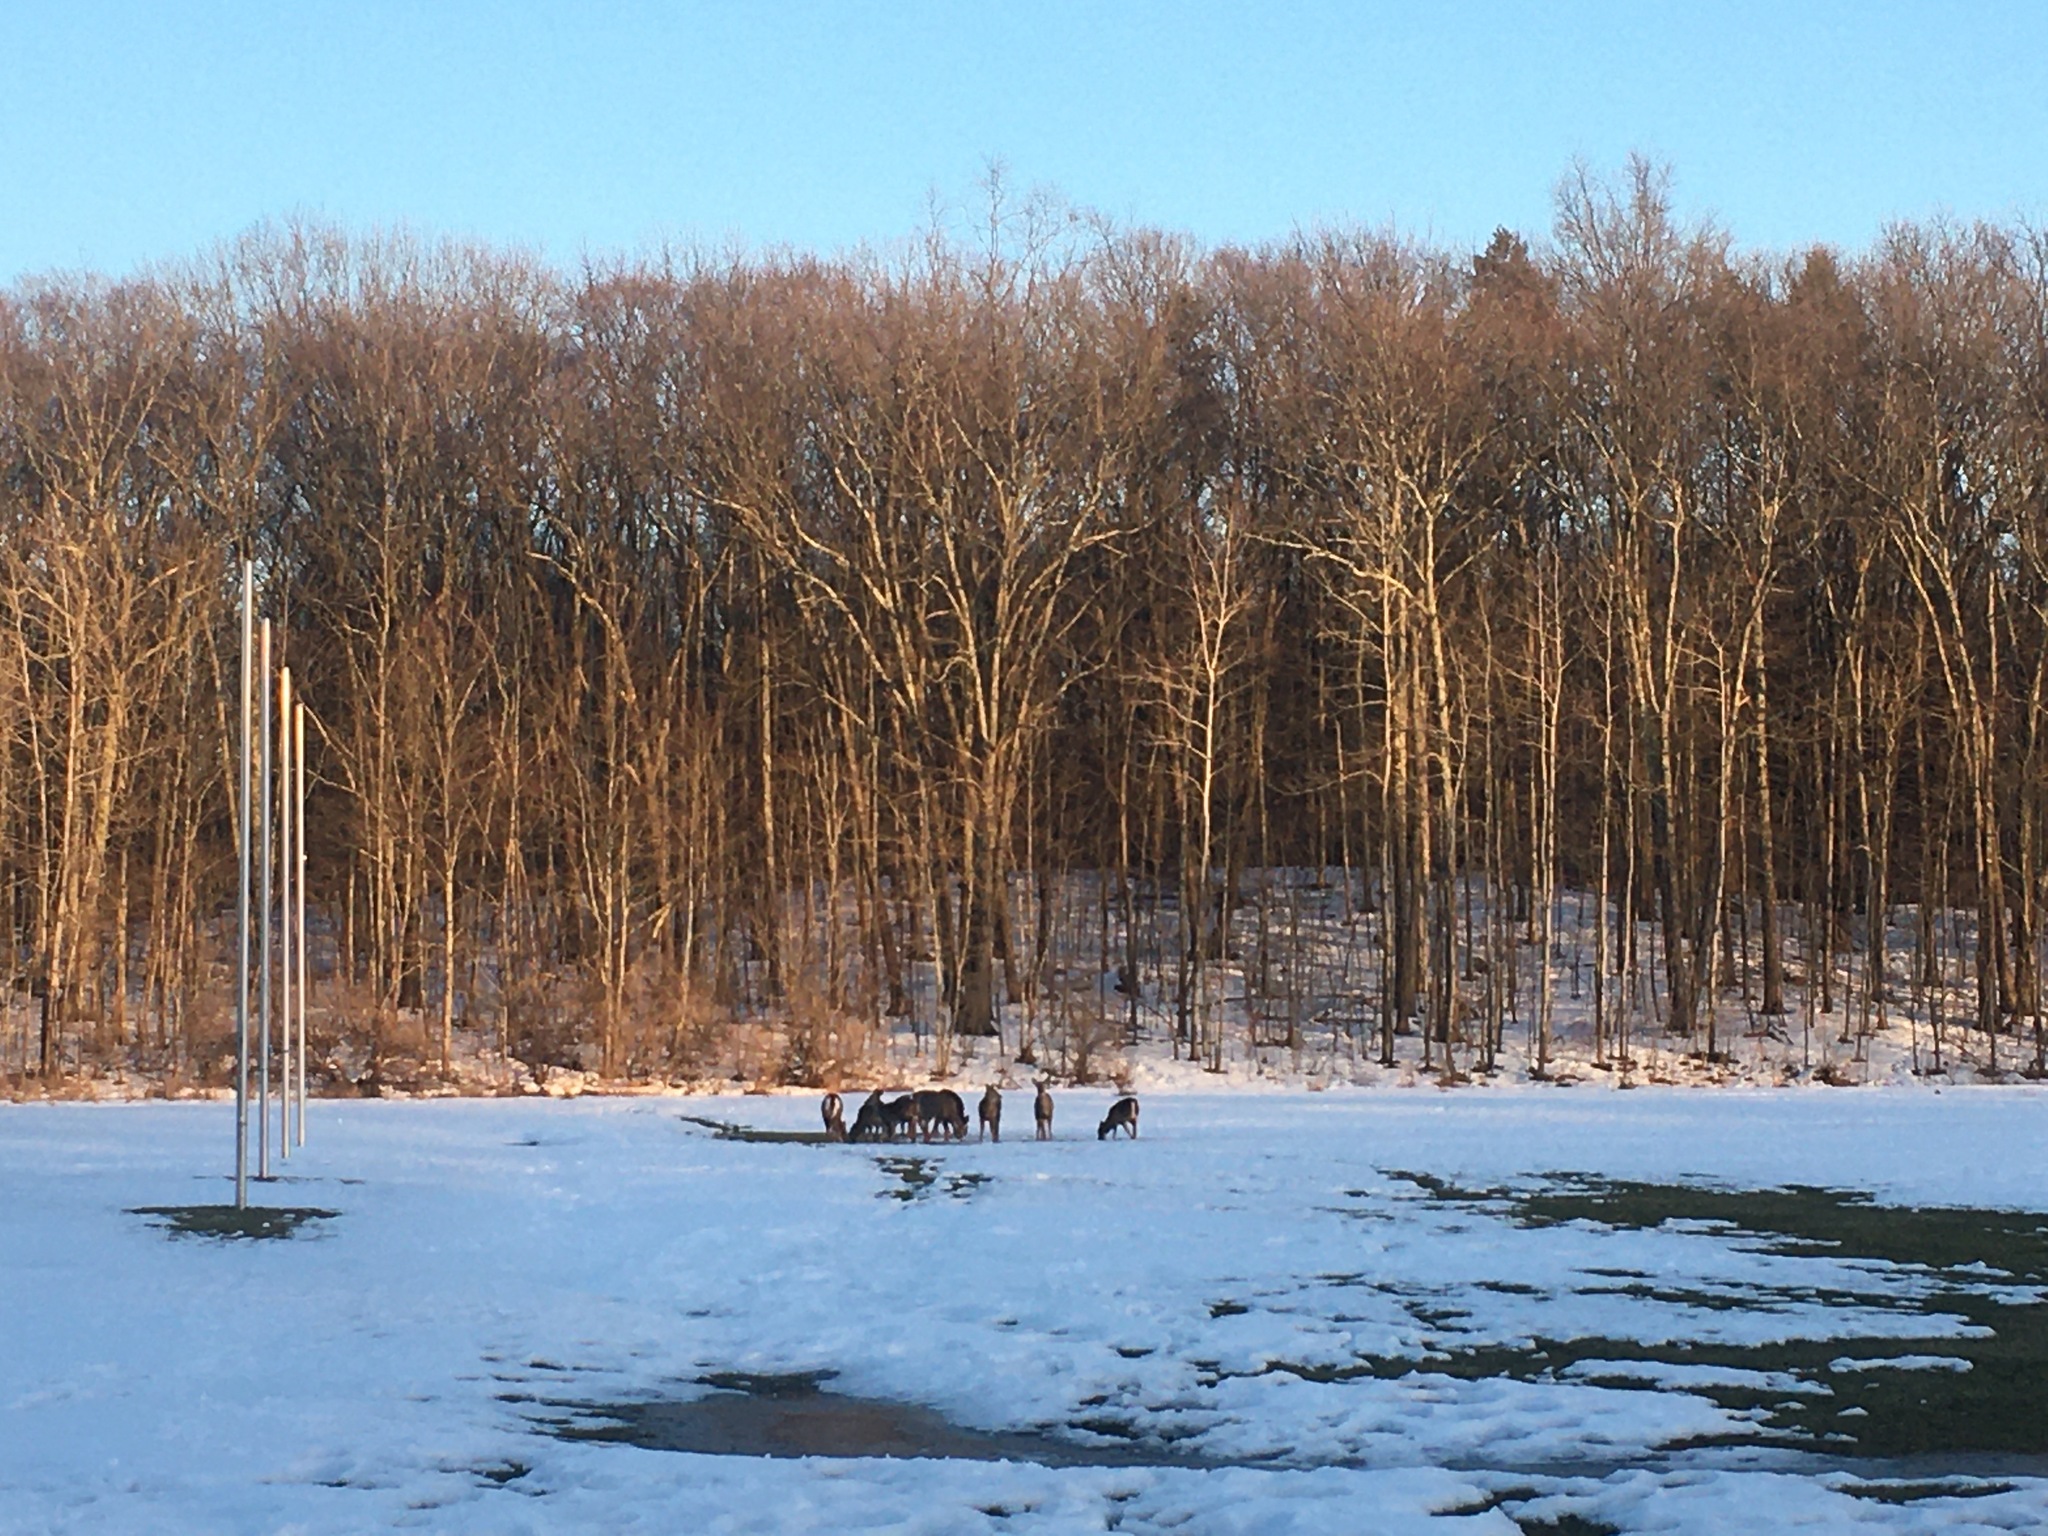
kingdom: Animalia
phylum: Chordata
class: Mammalia
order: Artiodactyla
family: Cervidae
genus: Odocoileus
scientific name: Odocoileus virginianus
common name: White-tailed deer
